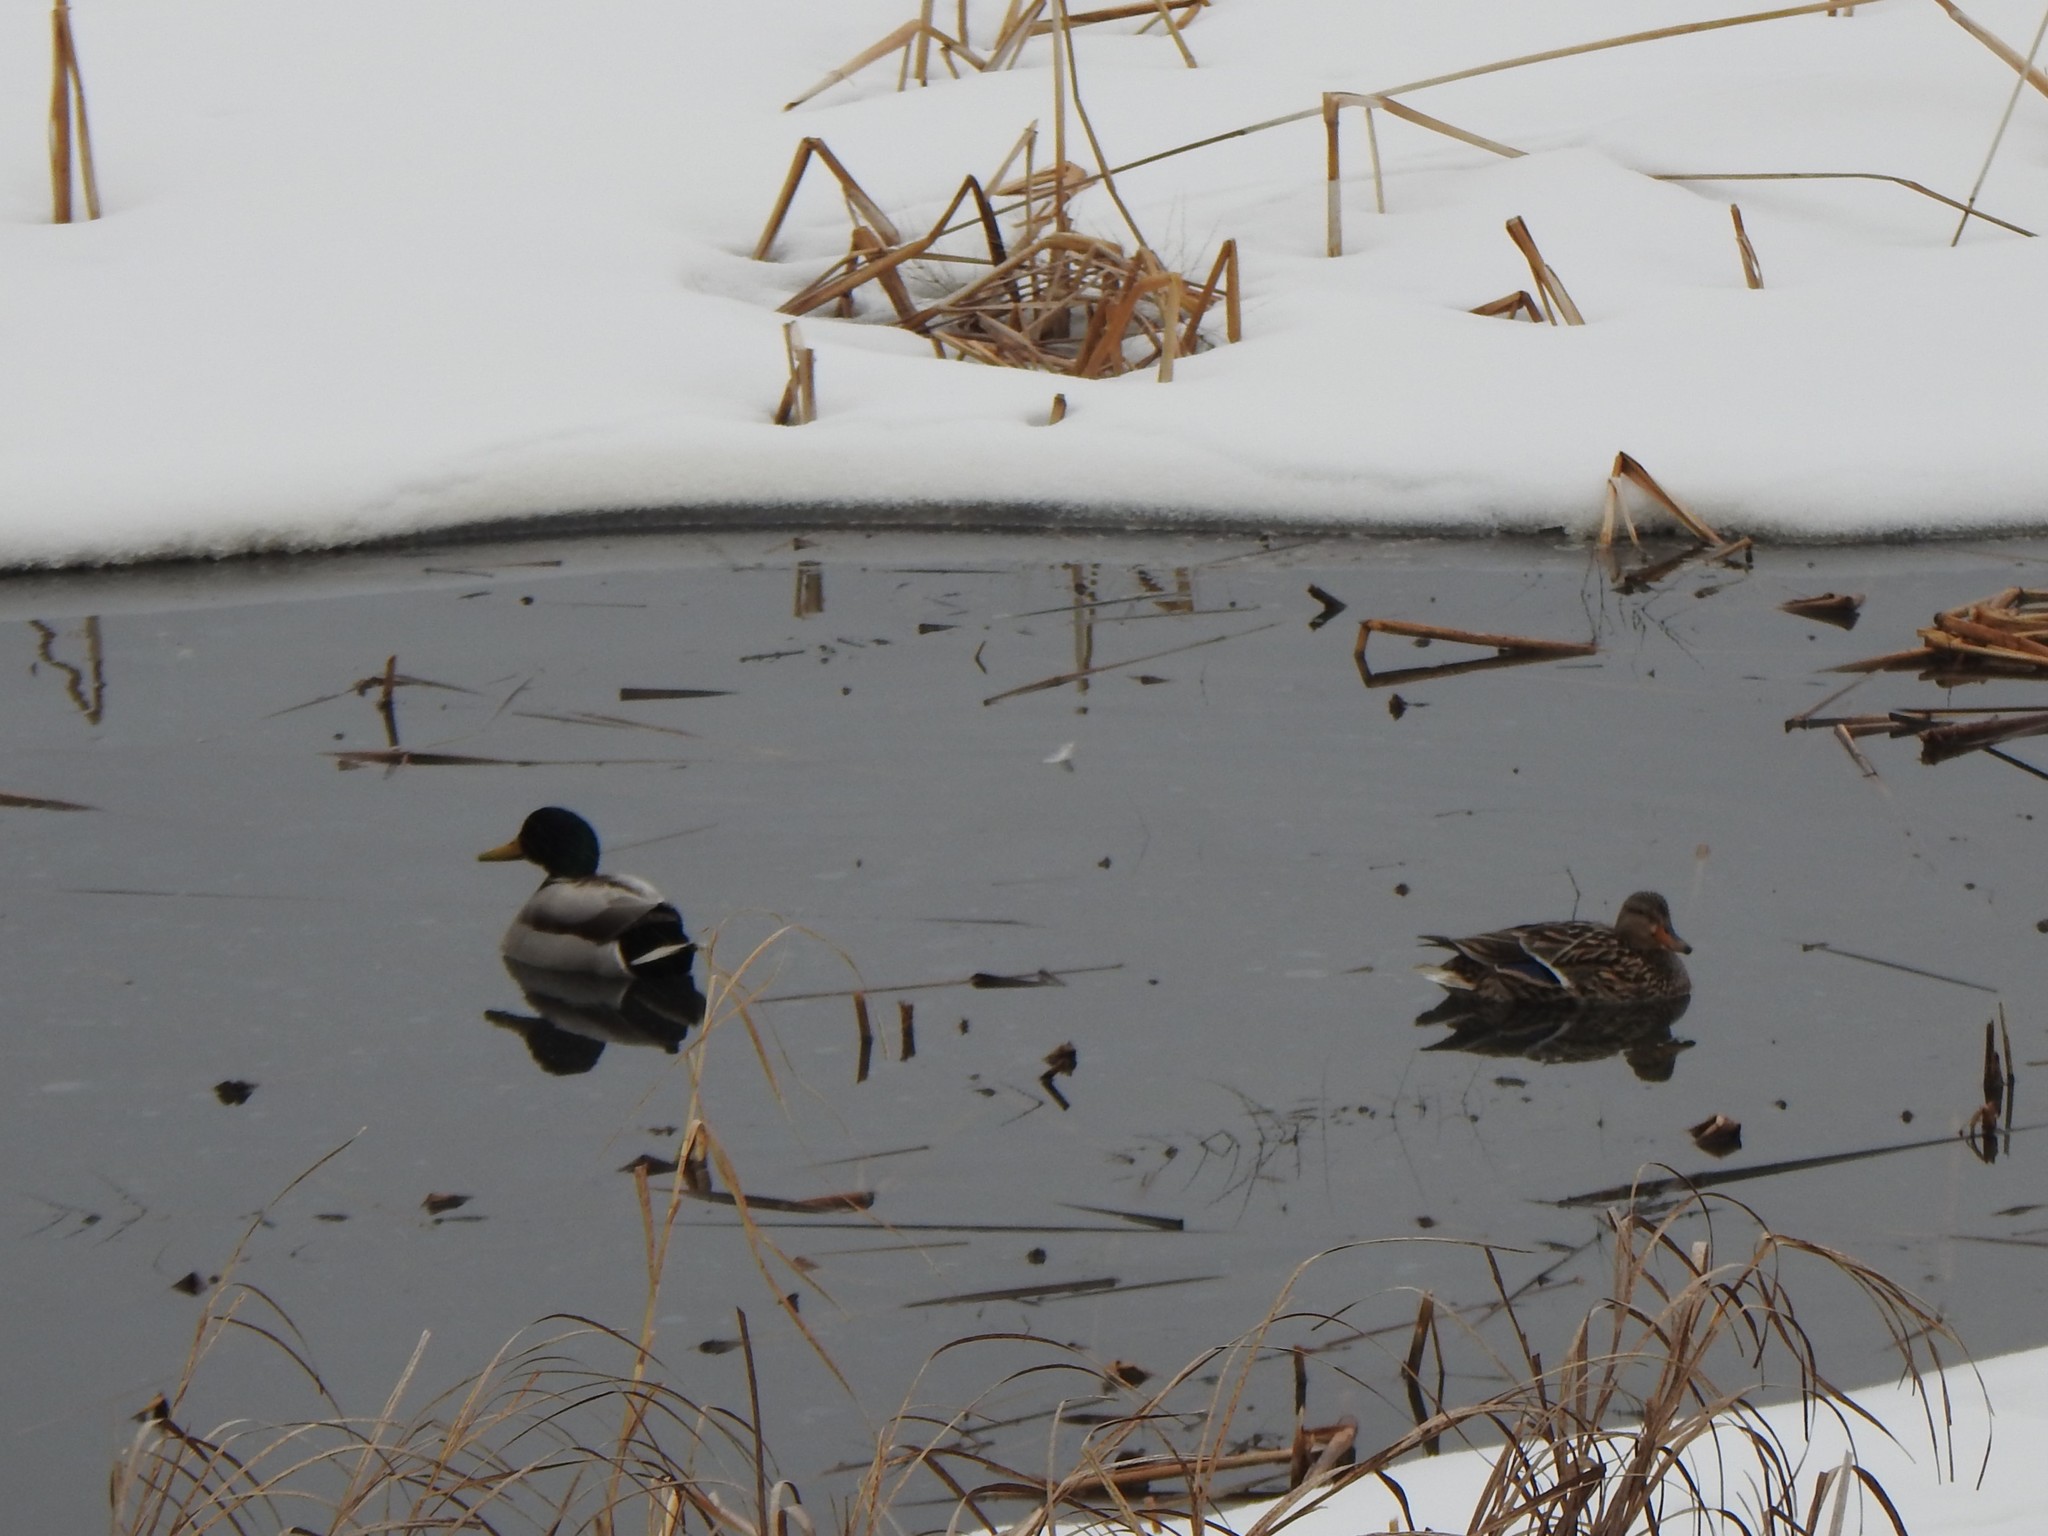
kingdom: Animalia
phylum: Chordata
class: Aves
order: Anseriformes
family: Anatidae
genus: Anas
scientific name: Anas platyrhynchos
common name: Mallard
